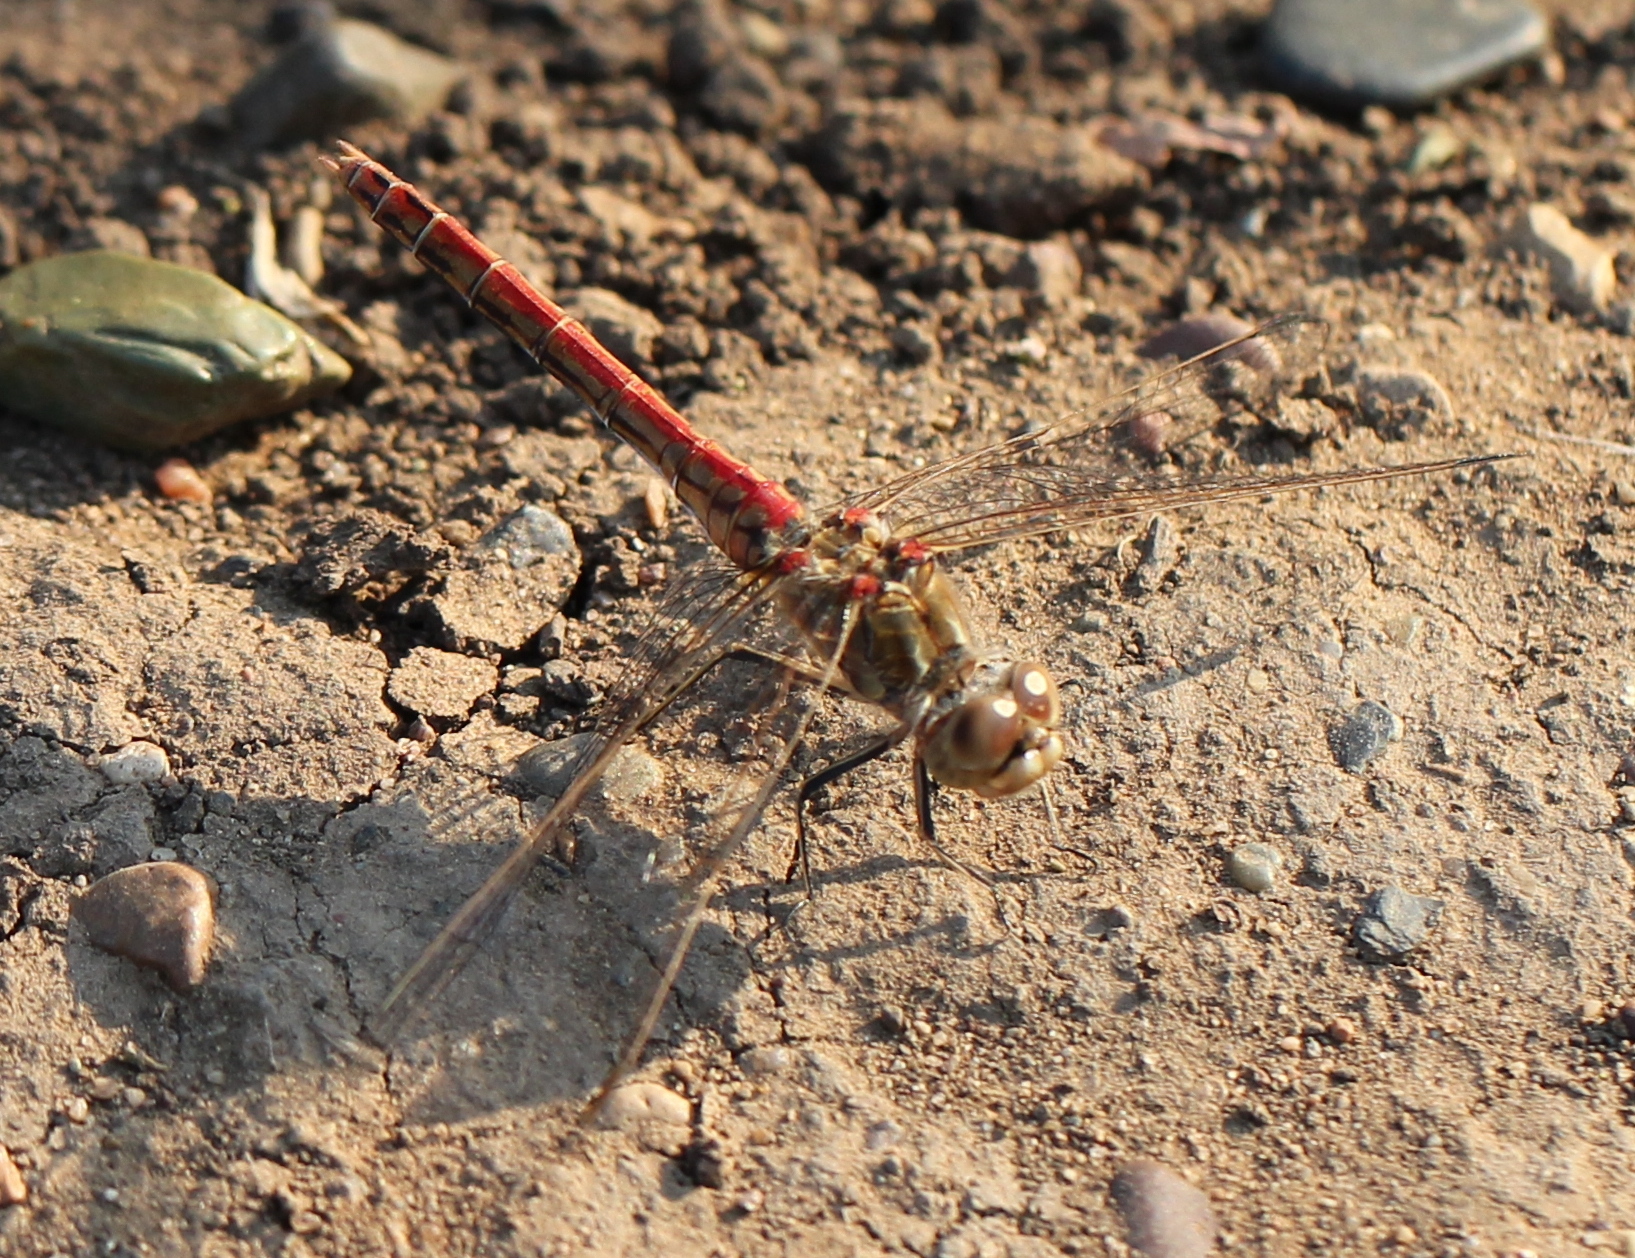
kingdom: Animalia
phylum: Arthropoda
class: Insecta
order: Odonata
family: Libellulidae
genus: Sympetrum
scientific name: Sympetrum vulgatum
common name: Vagrant darter
